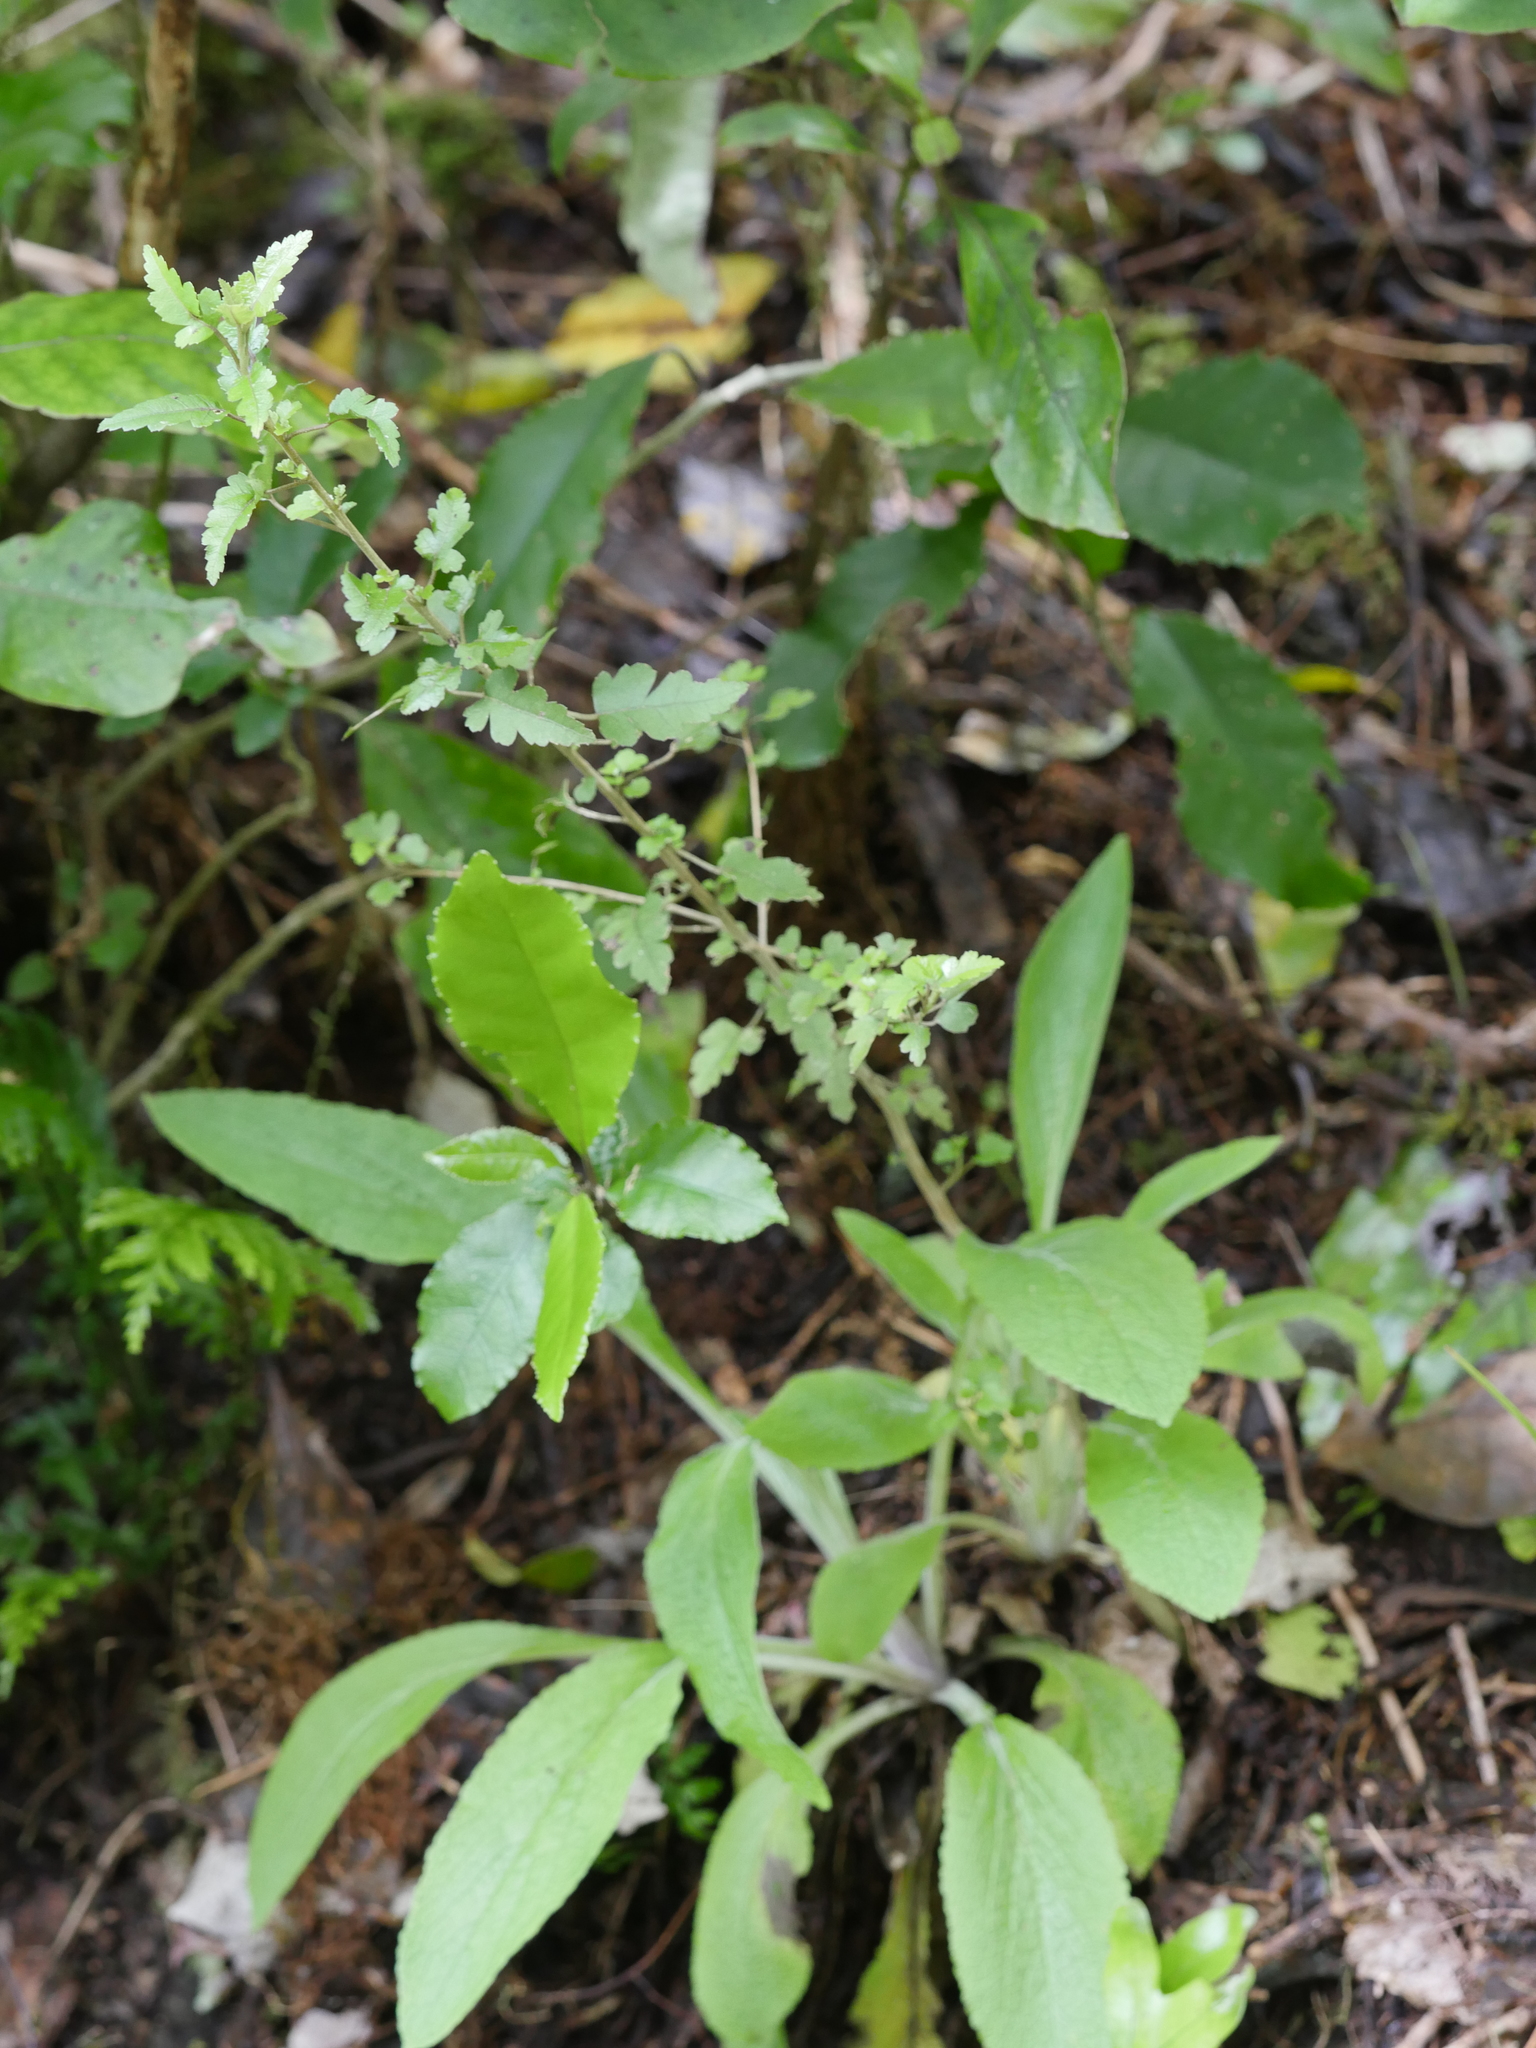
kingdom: Plantae
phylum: Tracheophyta
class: Magnoliopsida
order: Malvales
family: Malvaceae
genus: Hoheria
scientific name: Hoheria sexstylosa
